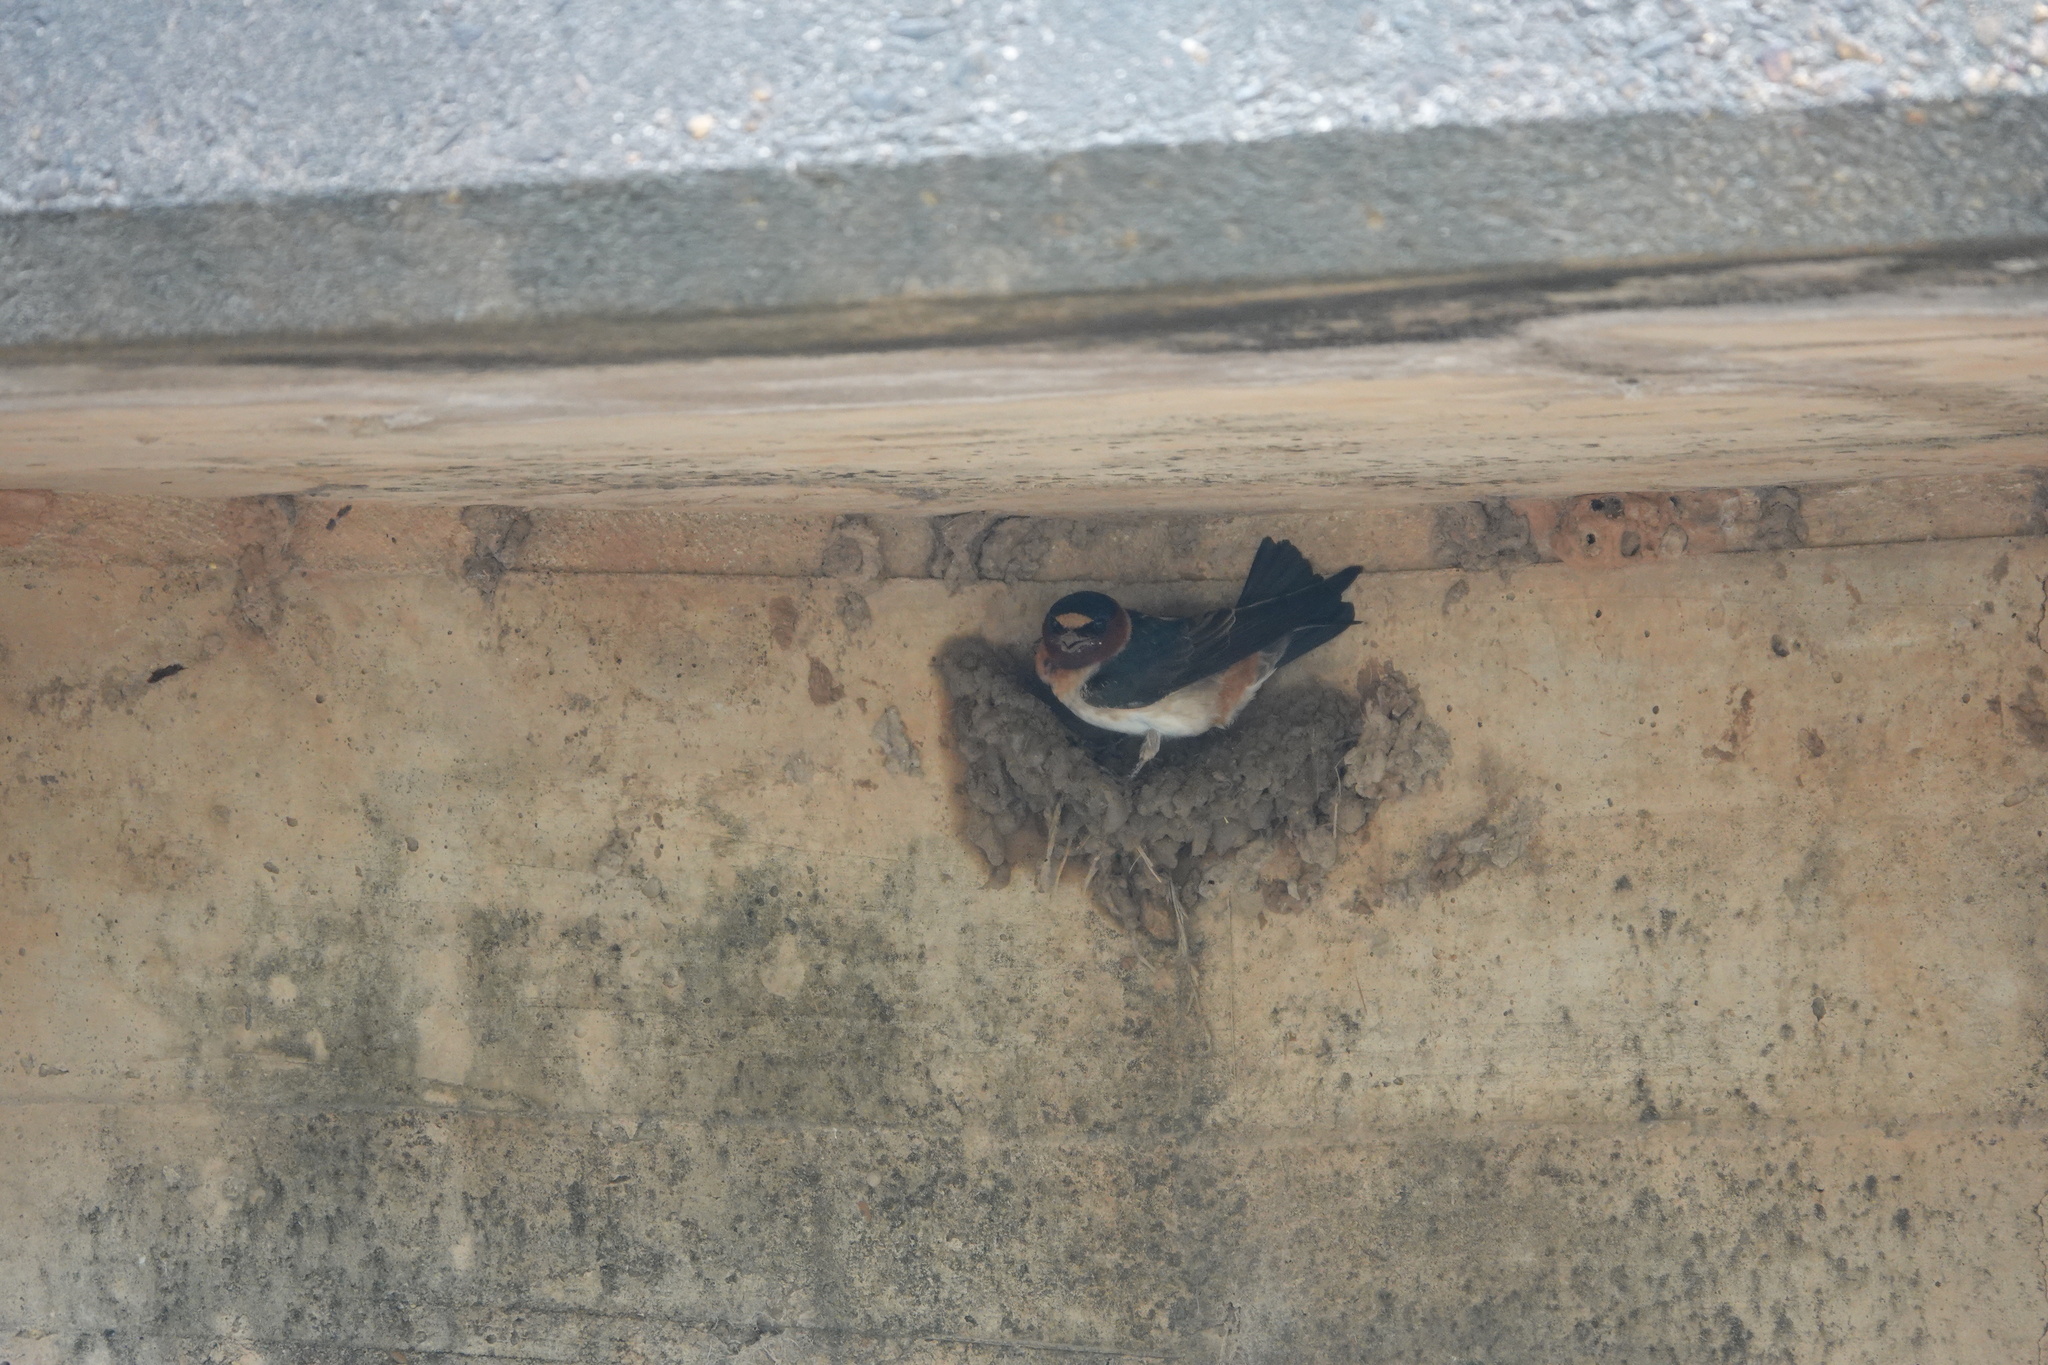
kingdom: Animalia
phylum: Chordata
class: Aves
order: Passeriformes
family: Hirundinidae
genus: Petrochelidon
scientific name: Petrochelidon pyrrhonota
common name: American cliff swallow
